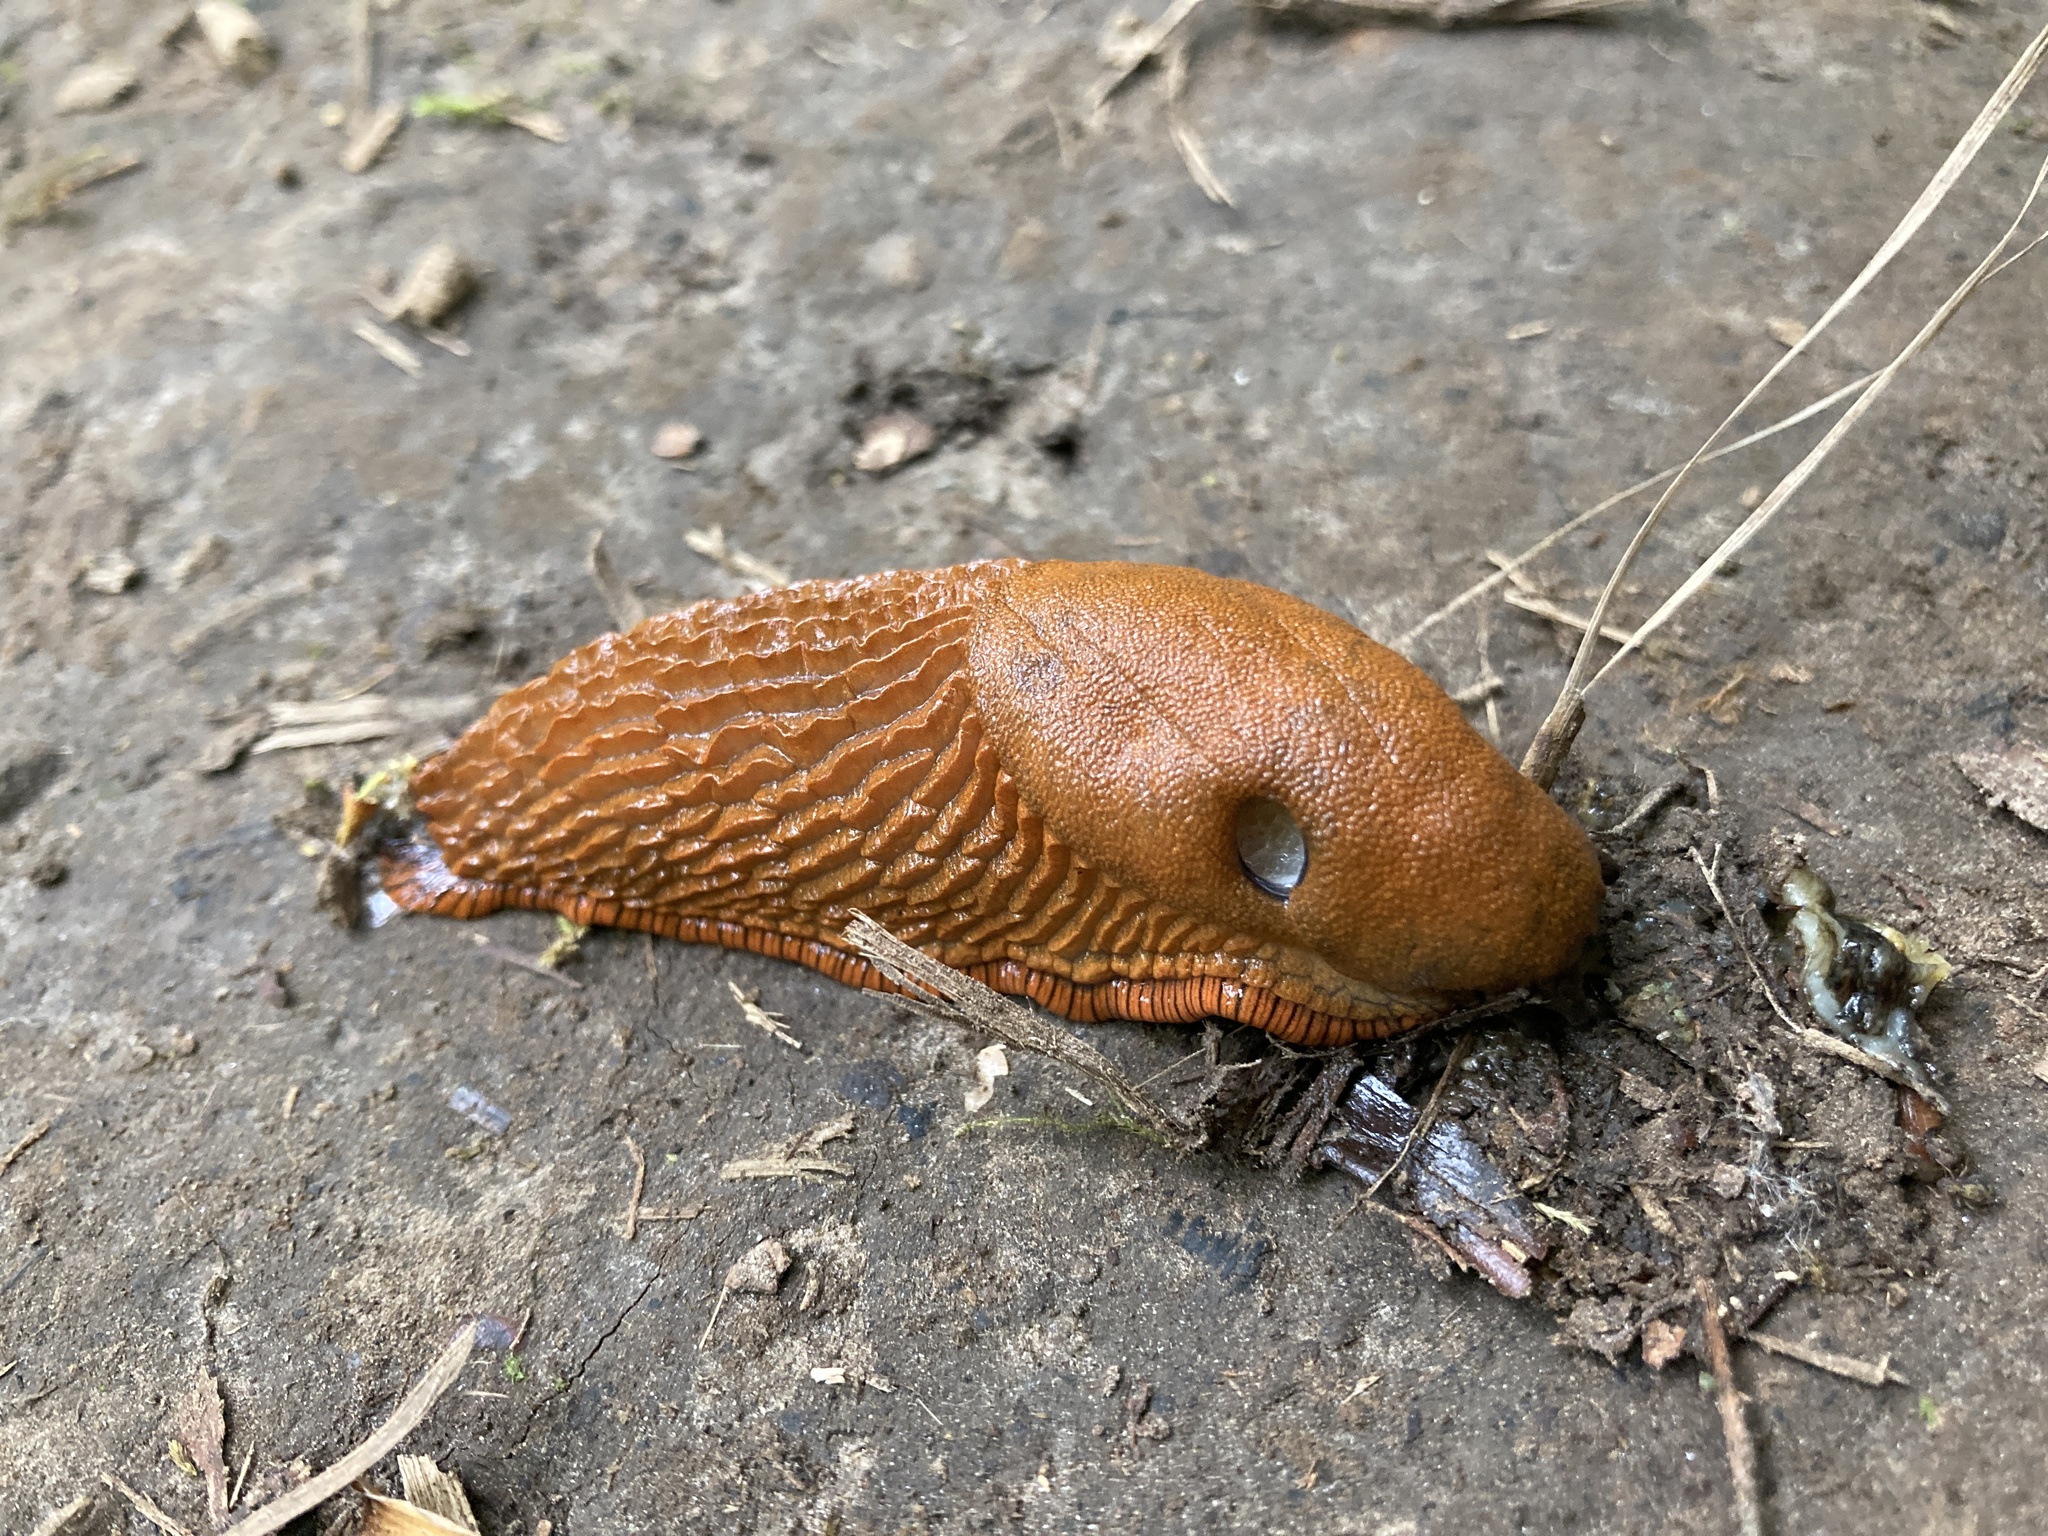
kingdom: Animalia
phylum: Mollusca
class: Gastropoda
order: Stylommatophora
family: Arionidae
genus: Arion
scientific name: Arion
